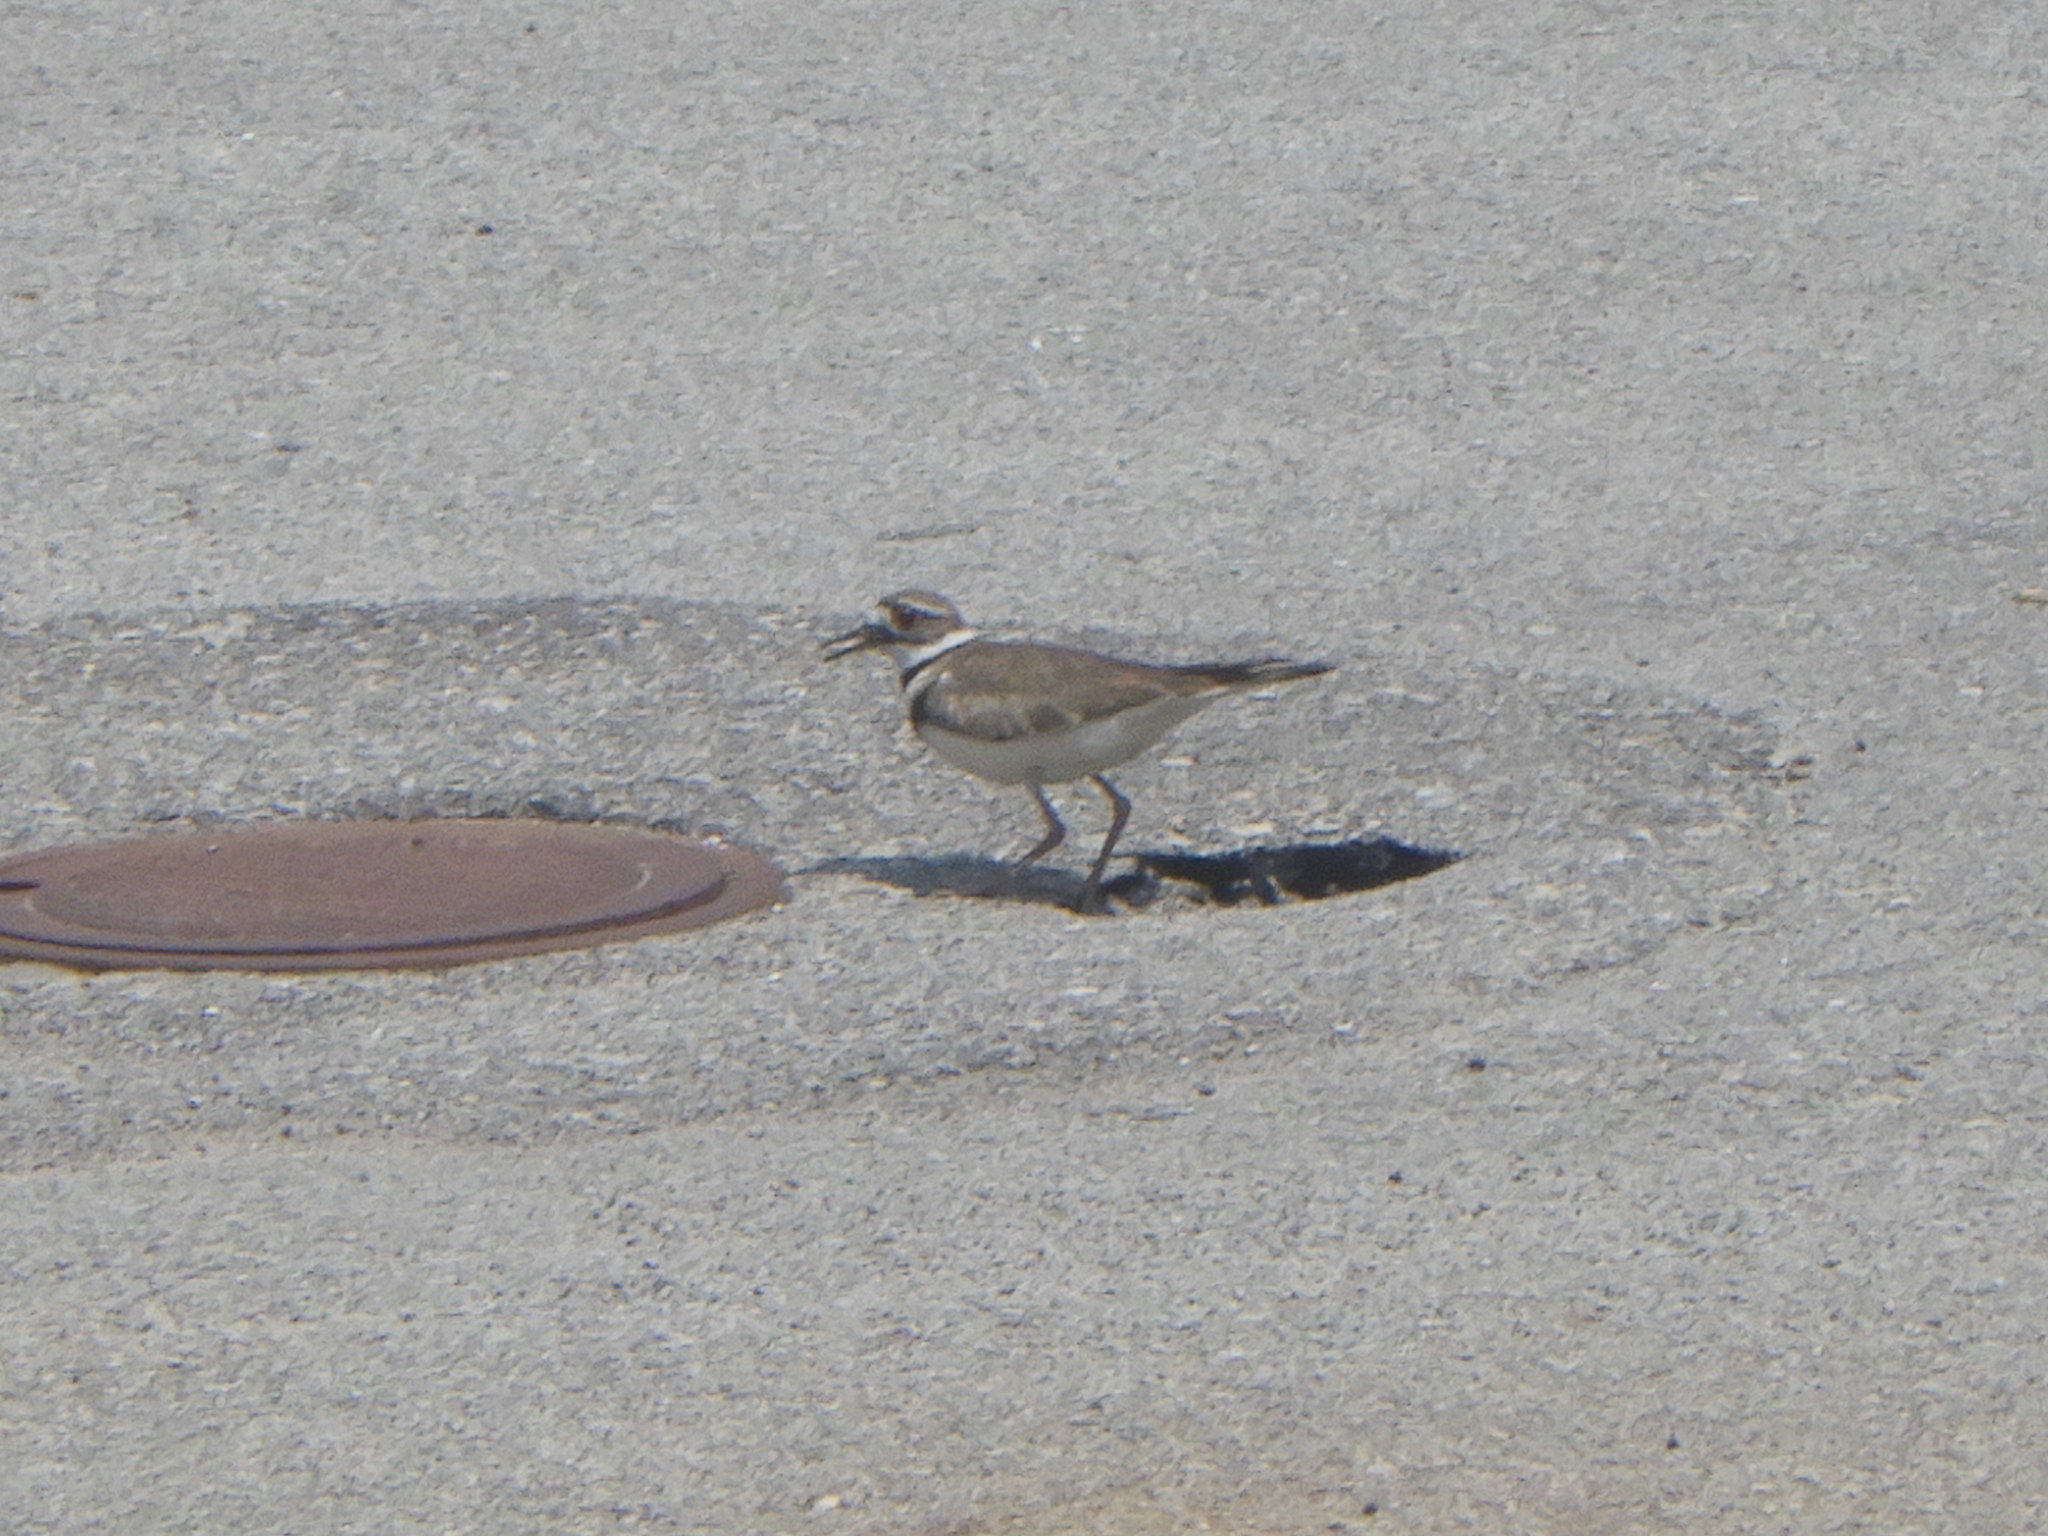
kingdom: Animalia
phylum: Chordata
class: Aves
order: Charadriiformes
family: Charadriidae
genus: Charadrius
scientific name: Charadrius vociferus
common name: Killdeer
